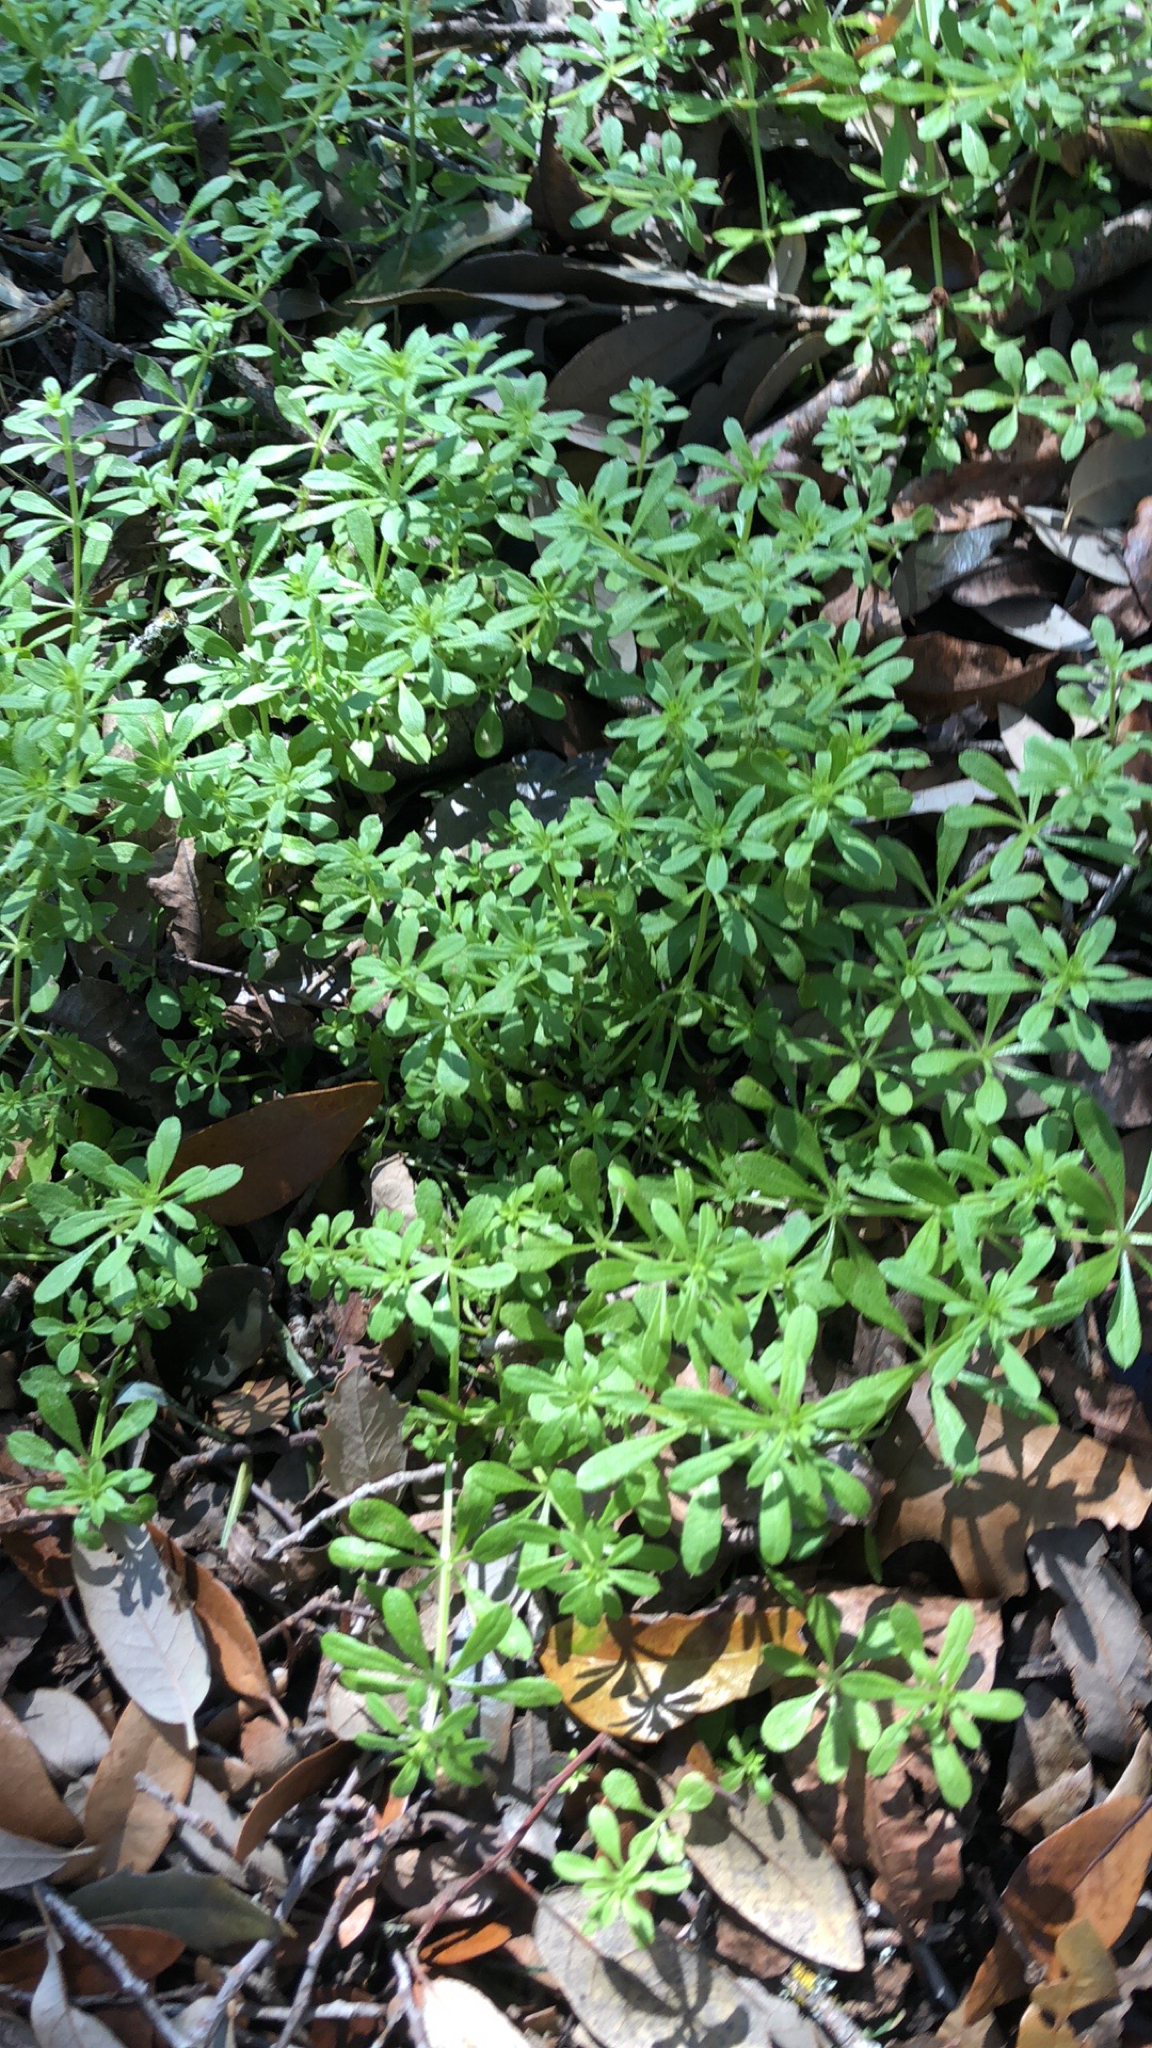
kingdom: Plantae
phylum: Tracheophyta
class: Magnoliopsida
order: Gentianales
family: Rubiaceae
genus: Galium
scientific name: Galium aparine
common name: Cleavers
